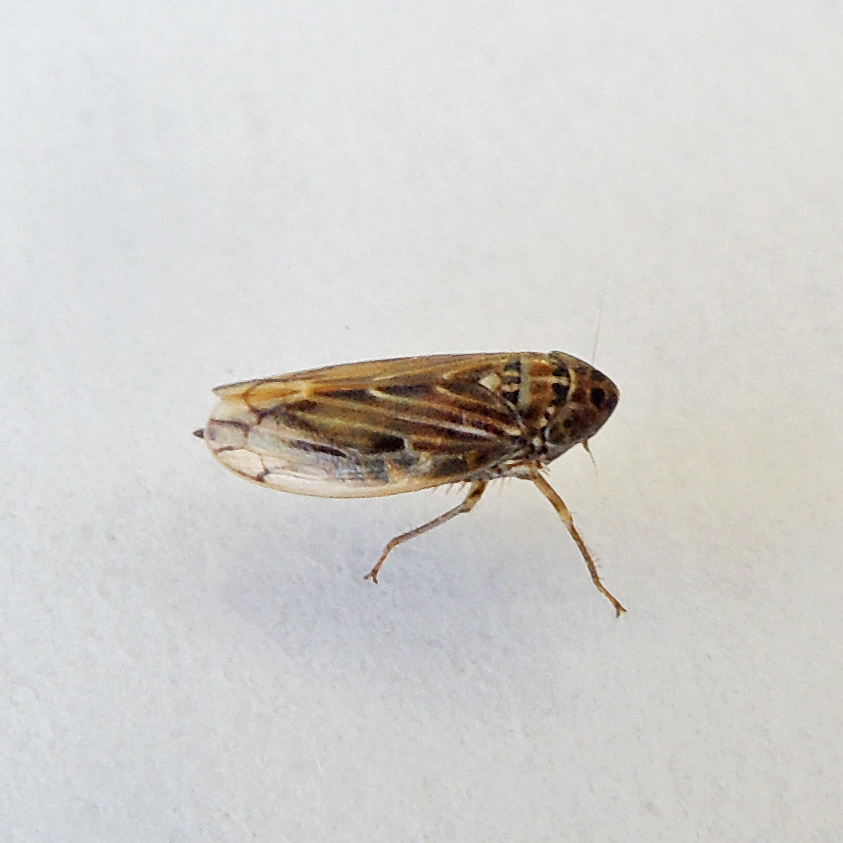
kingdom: Animalia
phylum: Arthropoda
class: Insecta
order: Hemiptera
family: Cicadellidae
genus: Stirellus
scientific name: Stirellus bicolor
